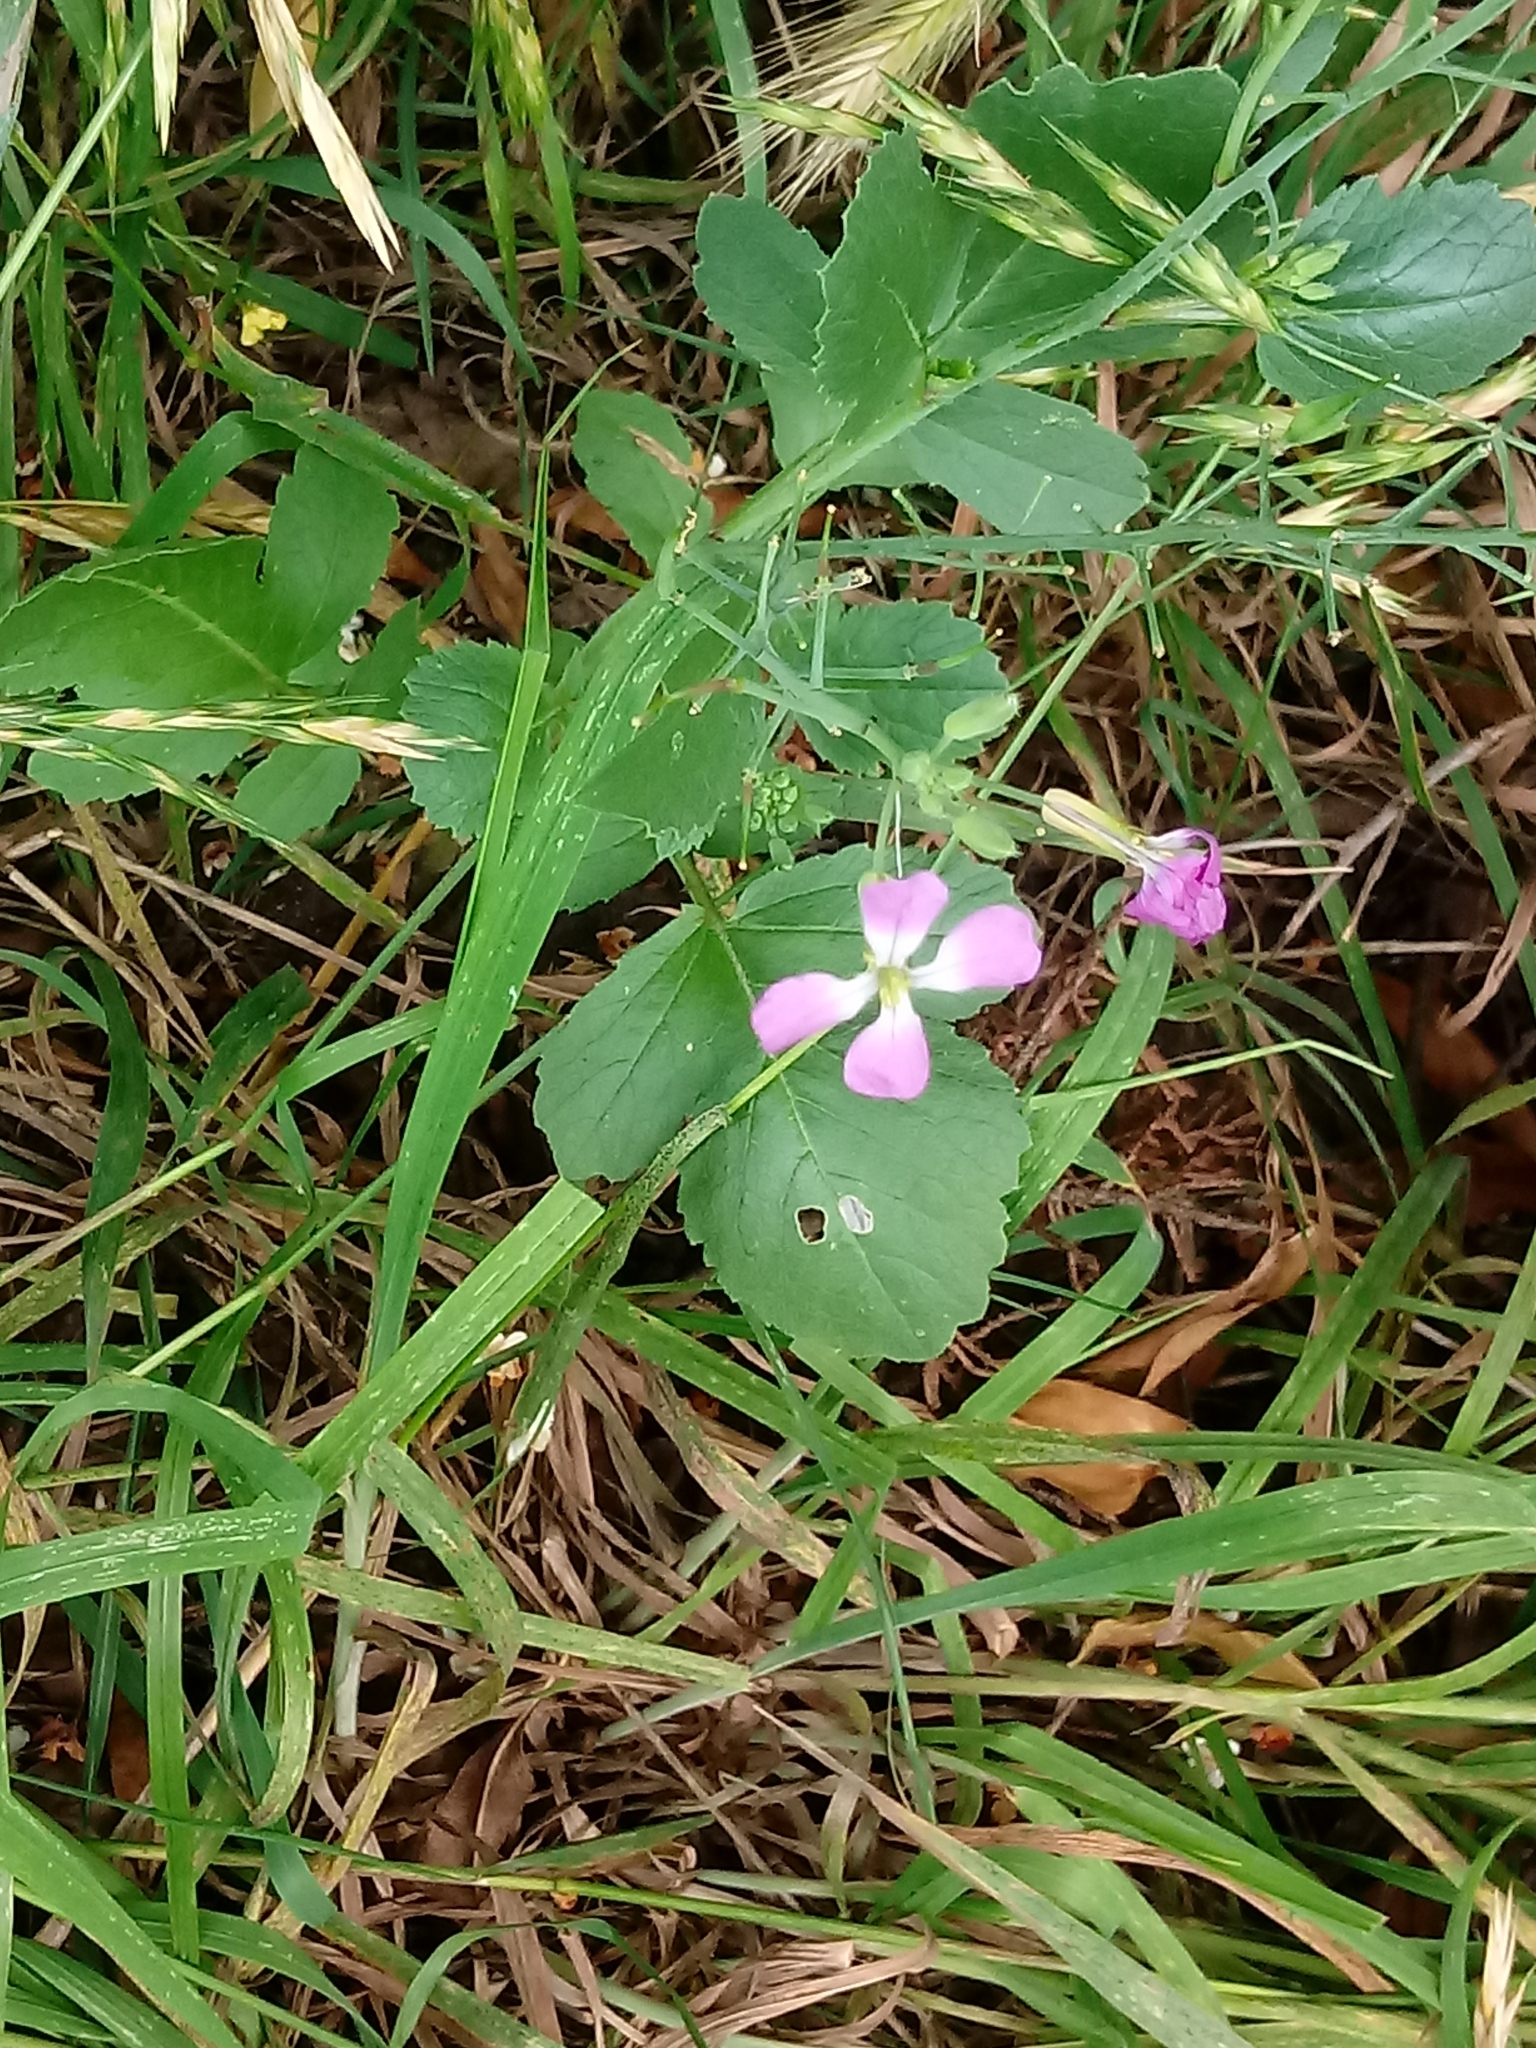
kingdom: Plantae
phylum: Tracheophyta
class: Magnoliopsida
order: Brassicales
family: Brassicaceae
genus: Raphanus
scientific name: Raphanus sativus
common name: Cultivated radish
